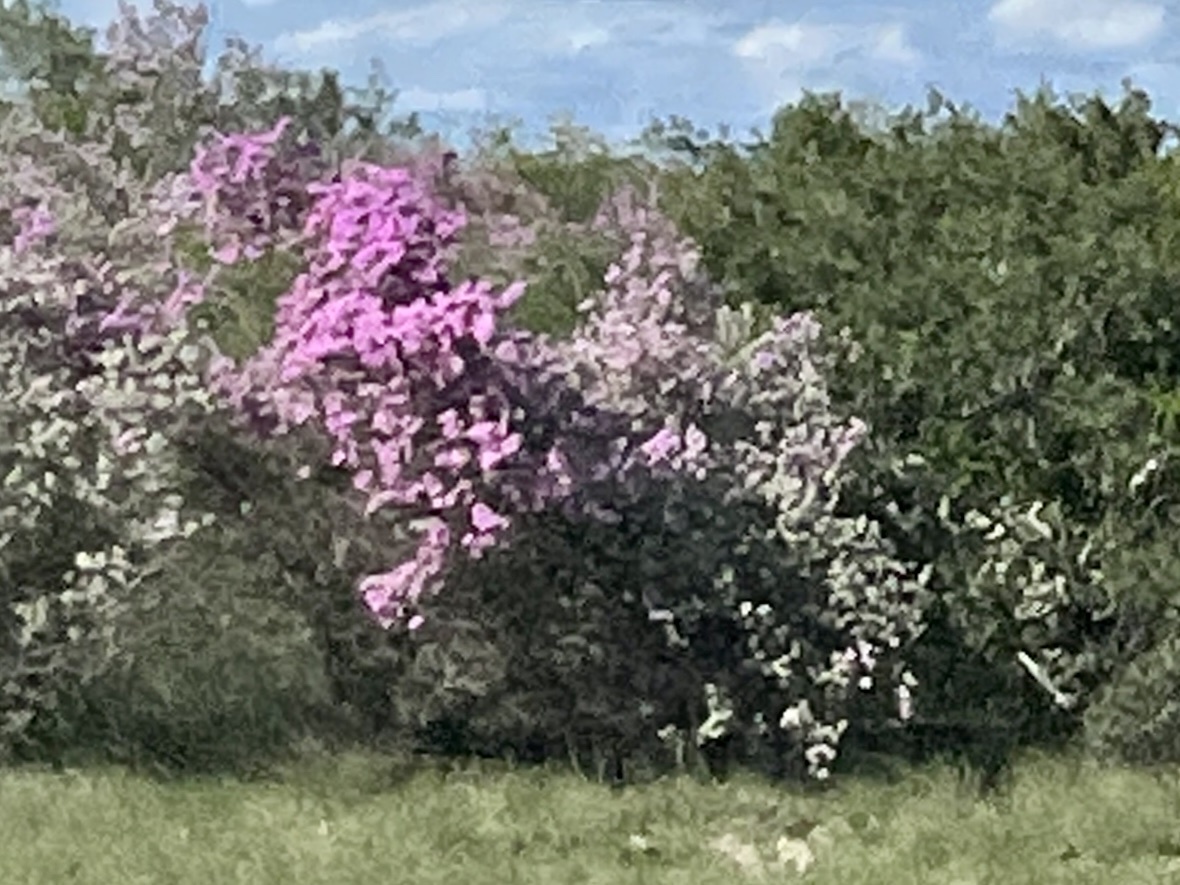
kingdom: Plantae
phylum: Tracheophyta
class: Magnoliopsida
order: Lamiales
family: Scrophulariaceae
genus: Leucophyllum
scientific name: Leucophyllum frutescens
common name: Texas silverleaf
